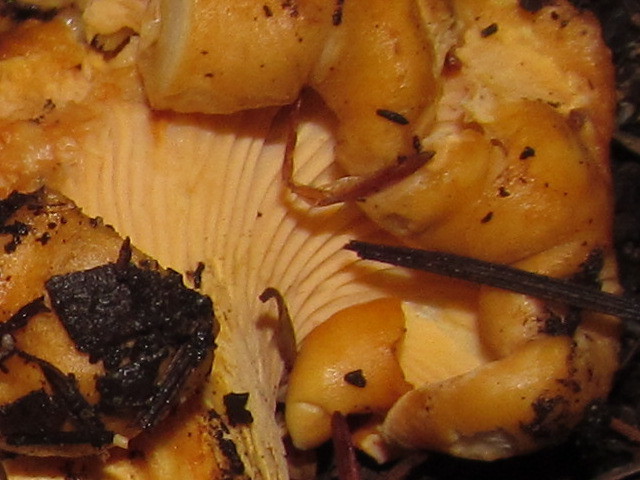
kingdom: Fungi
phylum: Basidiomycota
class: Agaricomycetes
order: Cantharellales
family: Hydnaceae
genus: Cantharellus
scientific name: Cantharellus formosus
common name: Pacific golden chanterelle
